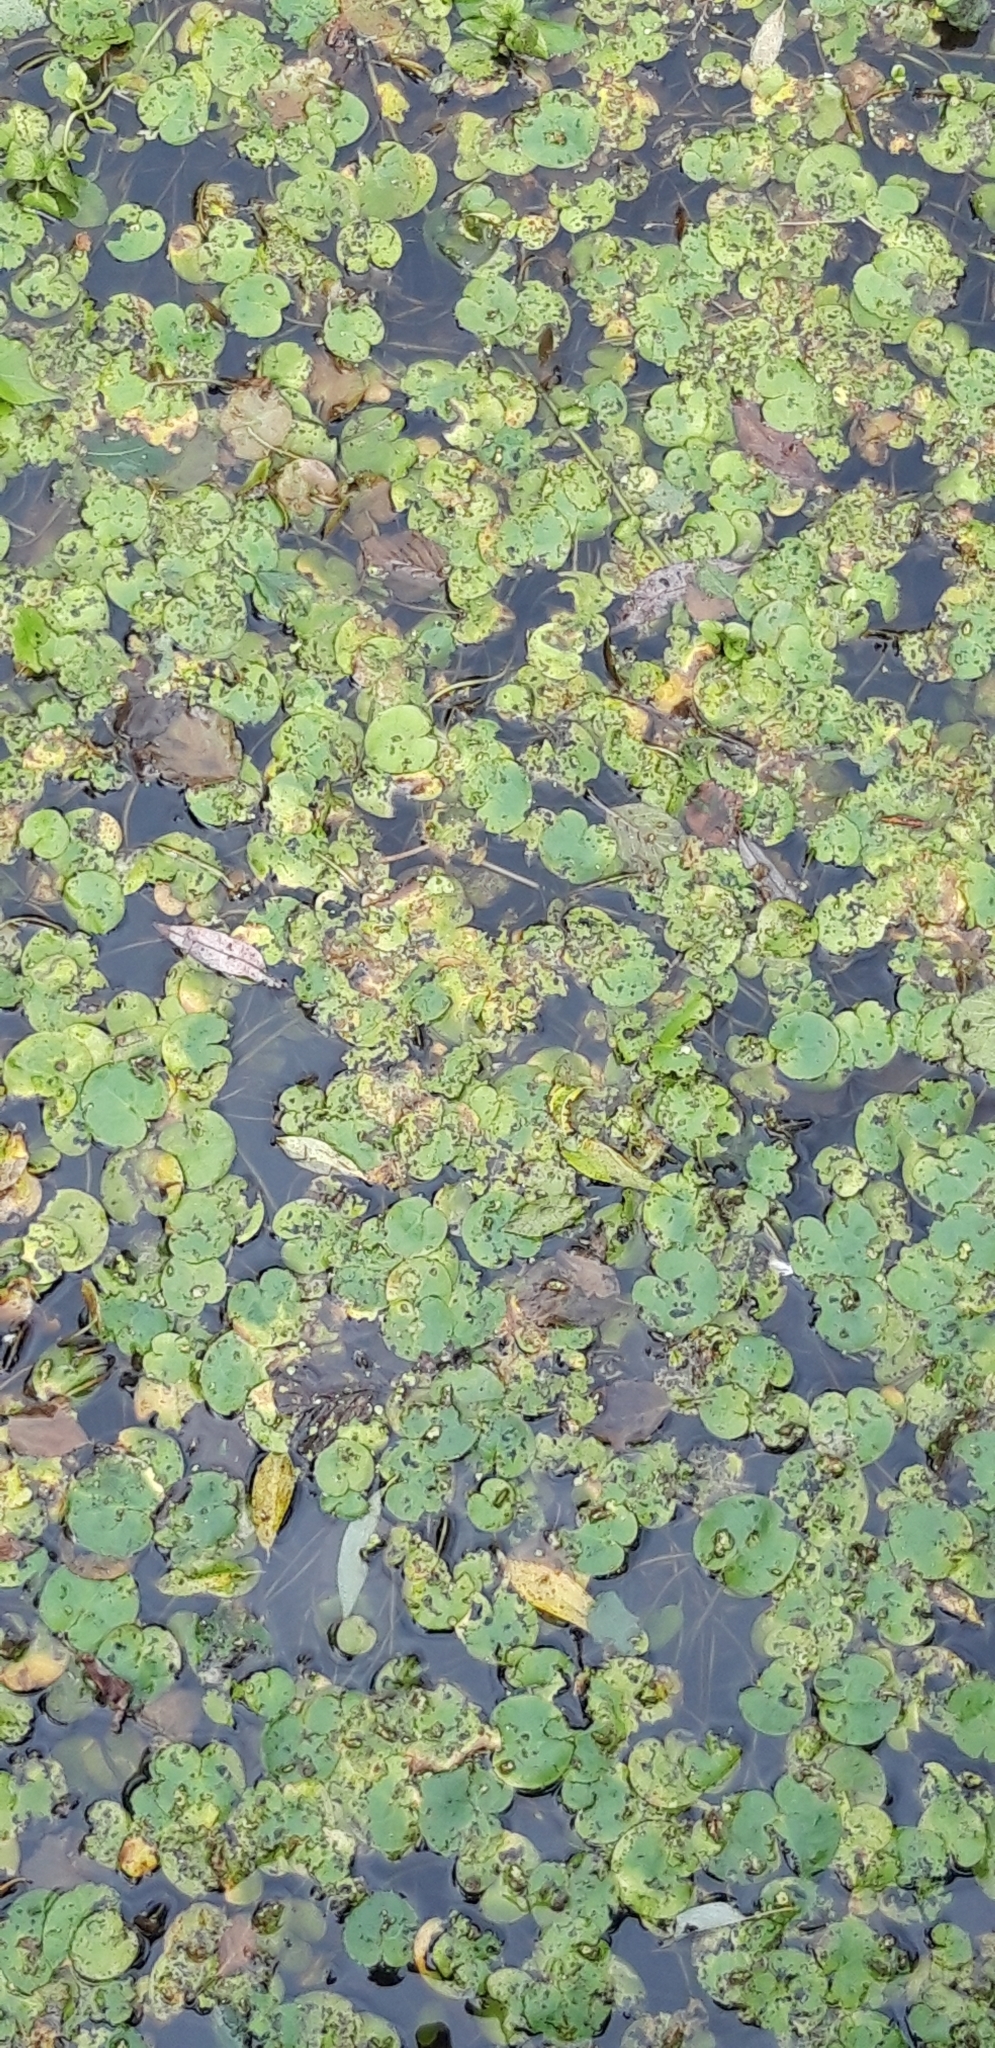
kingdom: Plantae
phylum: Tracheophyta
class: Liliopsida
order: Alismatales
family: Hydrocharitaceae
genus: Hydrocharis
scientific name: Hydrocharis morsus-ranae
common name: Frogbit
